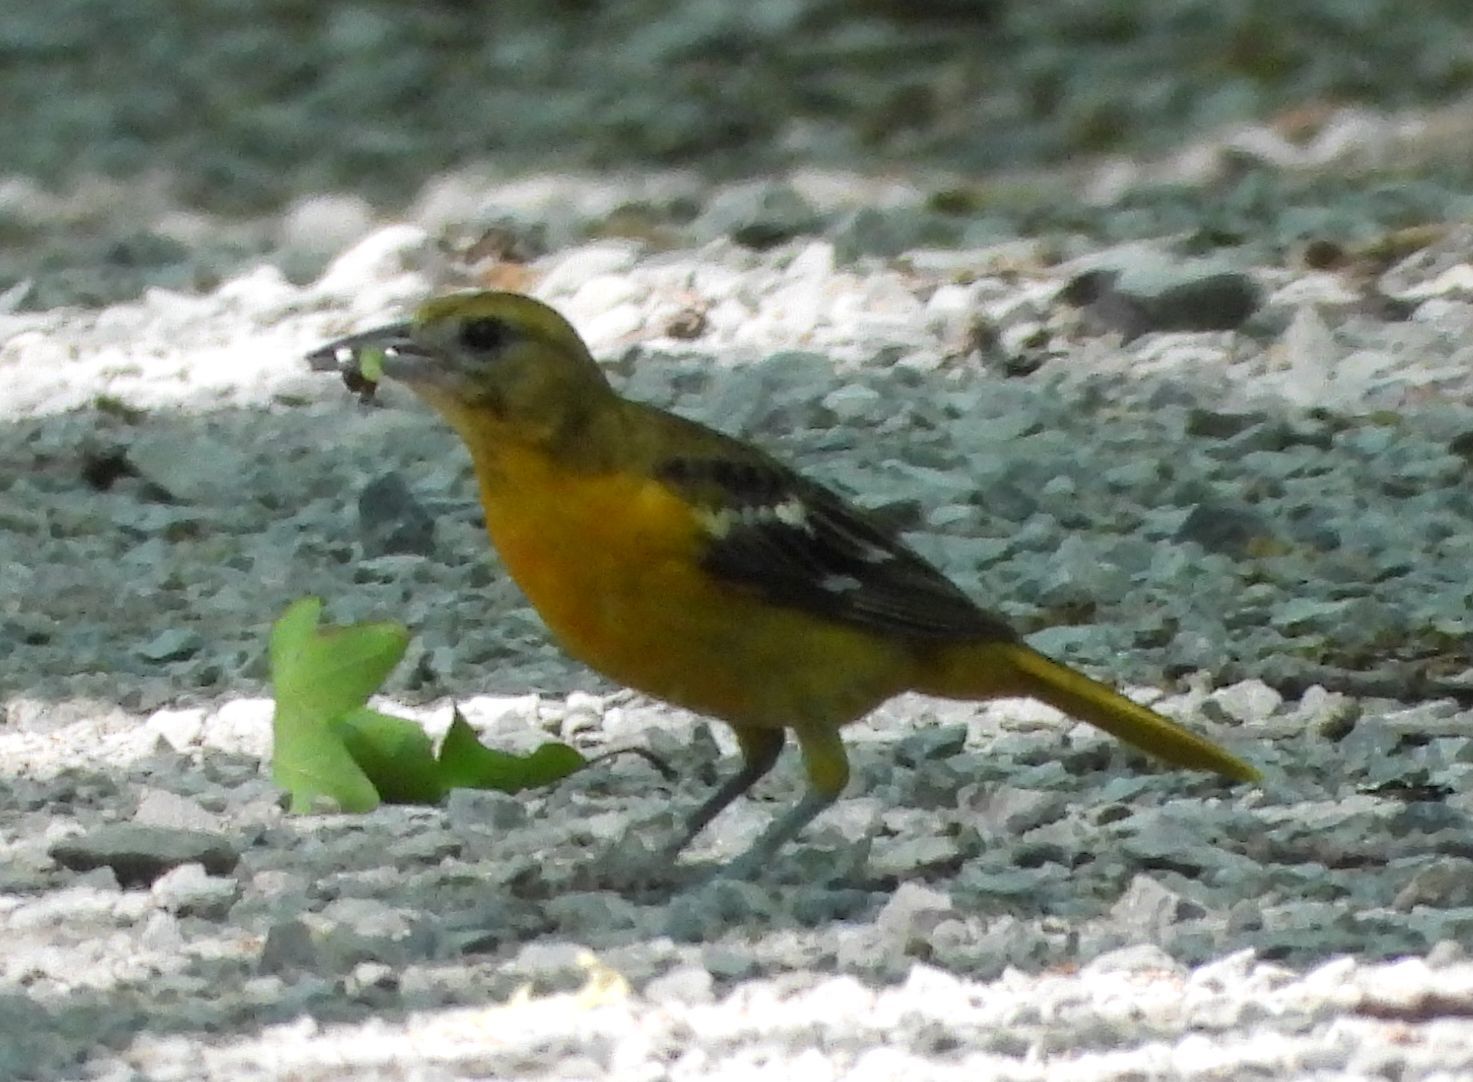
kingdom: Animalia
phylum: Chordata
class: Aves
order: Passeriformes
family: Icteridae
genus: Icterus
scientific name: Icterus galbula
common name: Baltimore oriole
